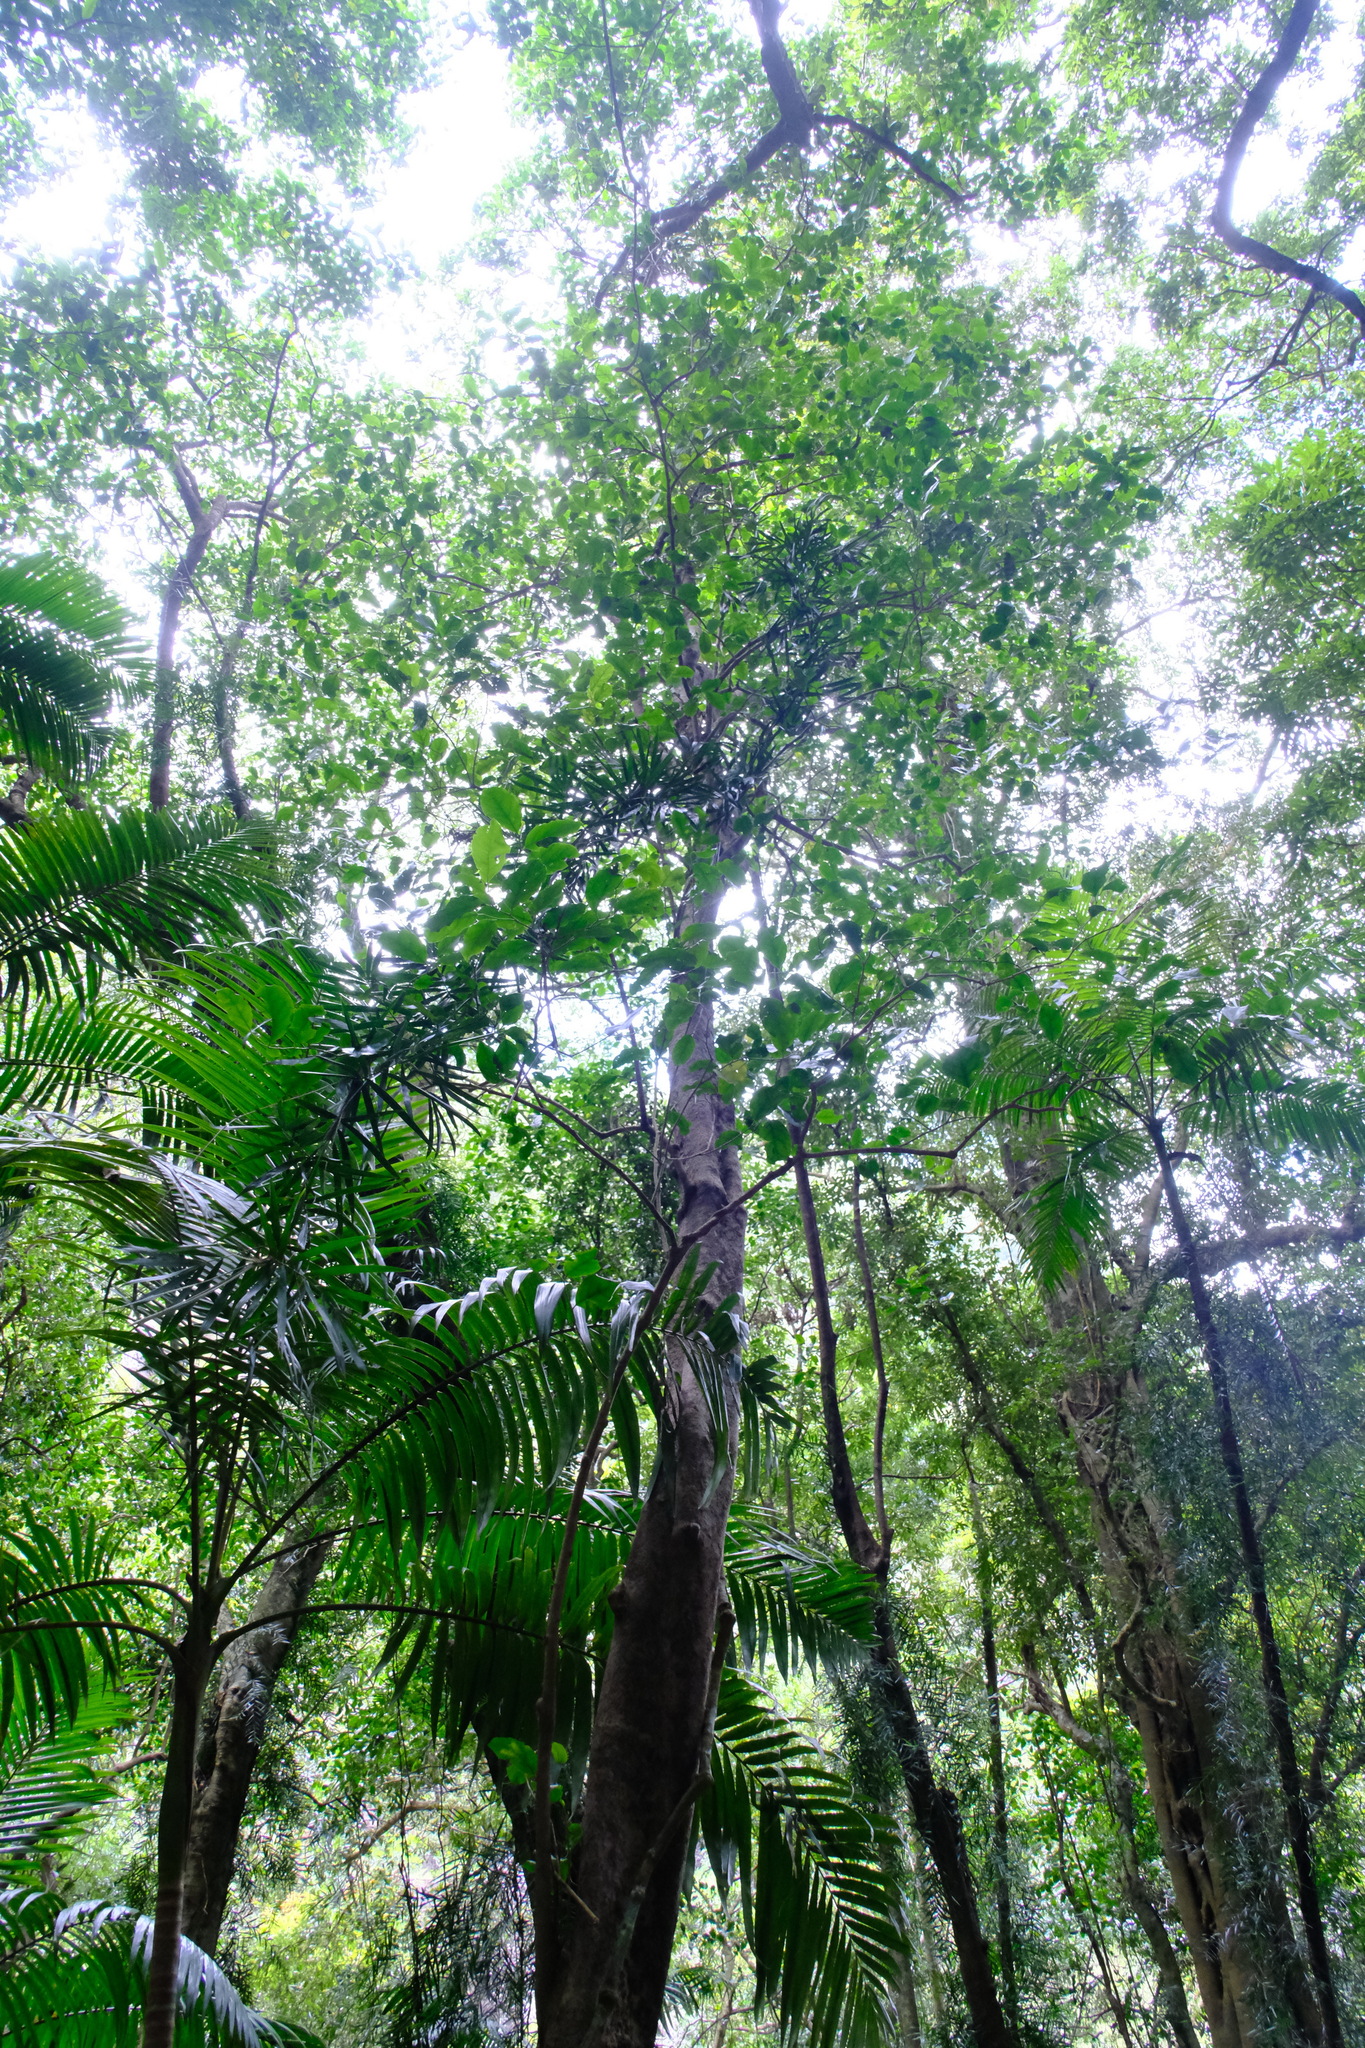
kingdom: Plantae
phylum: Tracheophyta
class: Magnoliopsida
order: Apiales
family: Pennantiaceae
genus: Pennantia
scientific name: Pennantia cunninghamii
